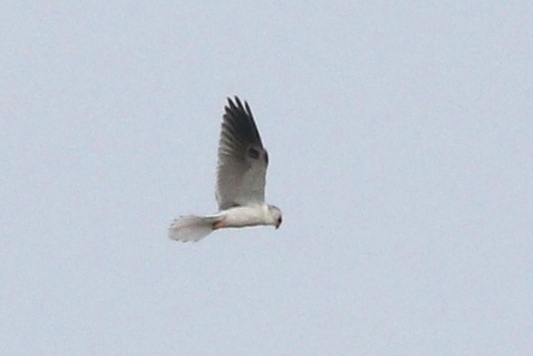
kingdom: Animalia
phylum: Chordata
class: Aves
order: Accipitriformes
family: Accipitridae
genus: Elanus
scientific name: Elanus leucurus
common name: White-tailed kite
